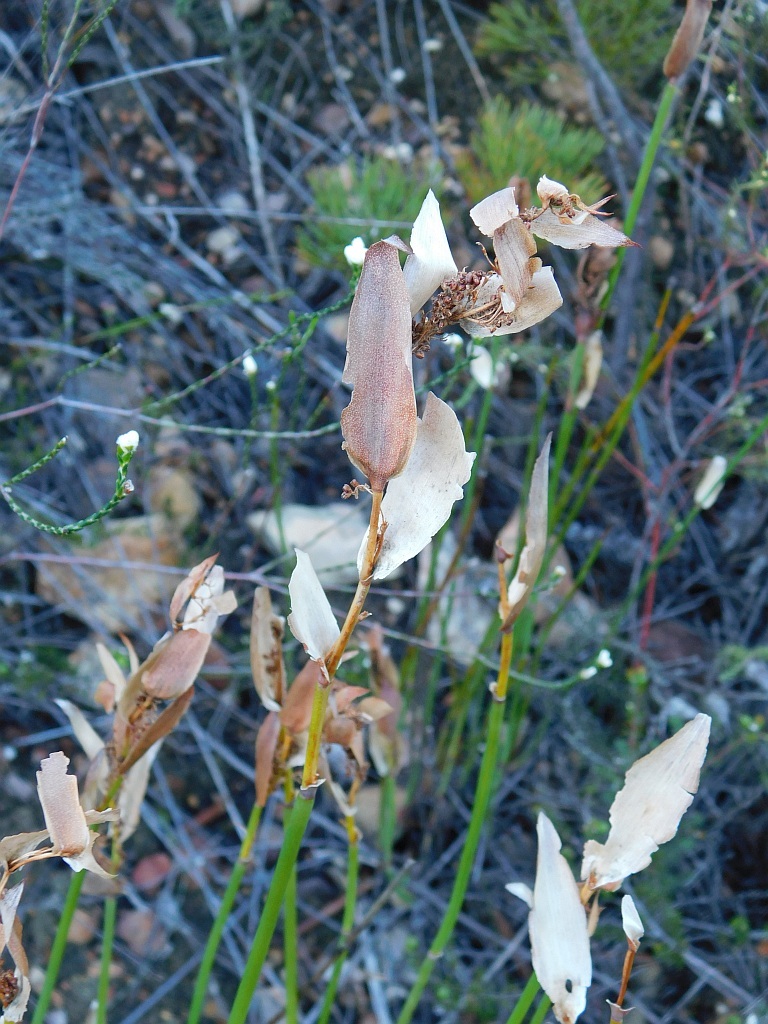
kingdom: Plantae
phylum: Tracheophyta
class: Liliopsida
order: Poales
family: Restionaceae
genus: Elegia
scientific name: Elegia persistens
